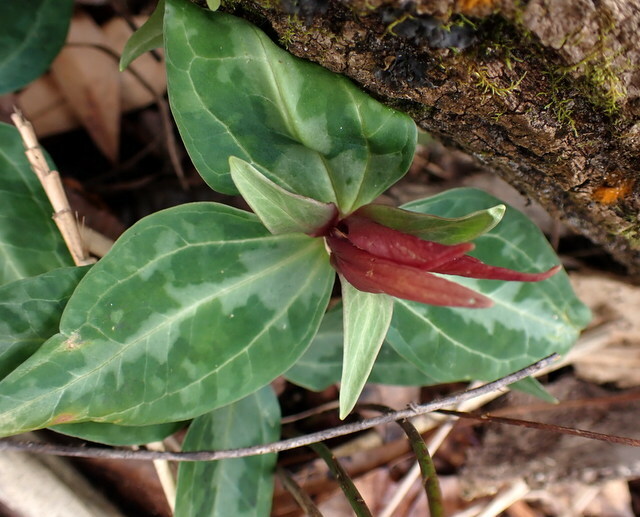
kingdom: Plantae
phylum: Tracheophyta
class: Liliopsida
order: Liliales
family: Melanthiaceae
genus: Trillium
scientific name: Trillium underwoodii
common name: Longbract wakerobin
